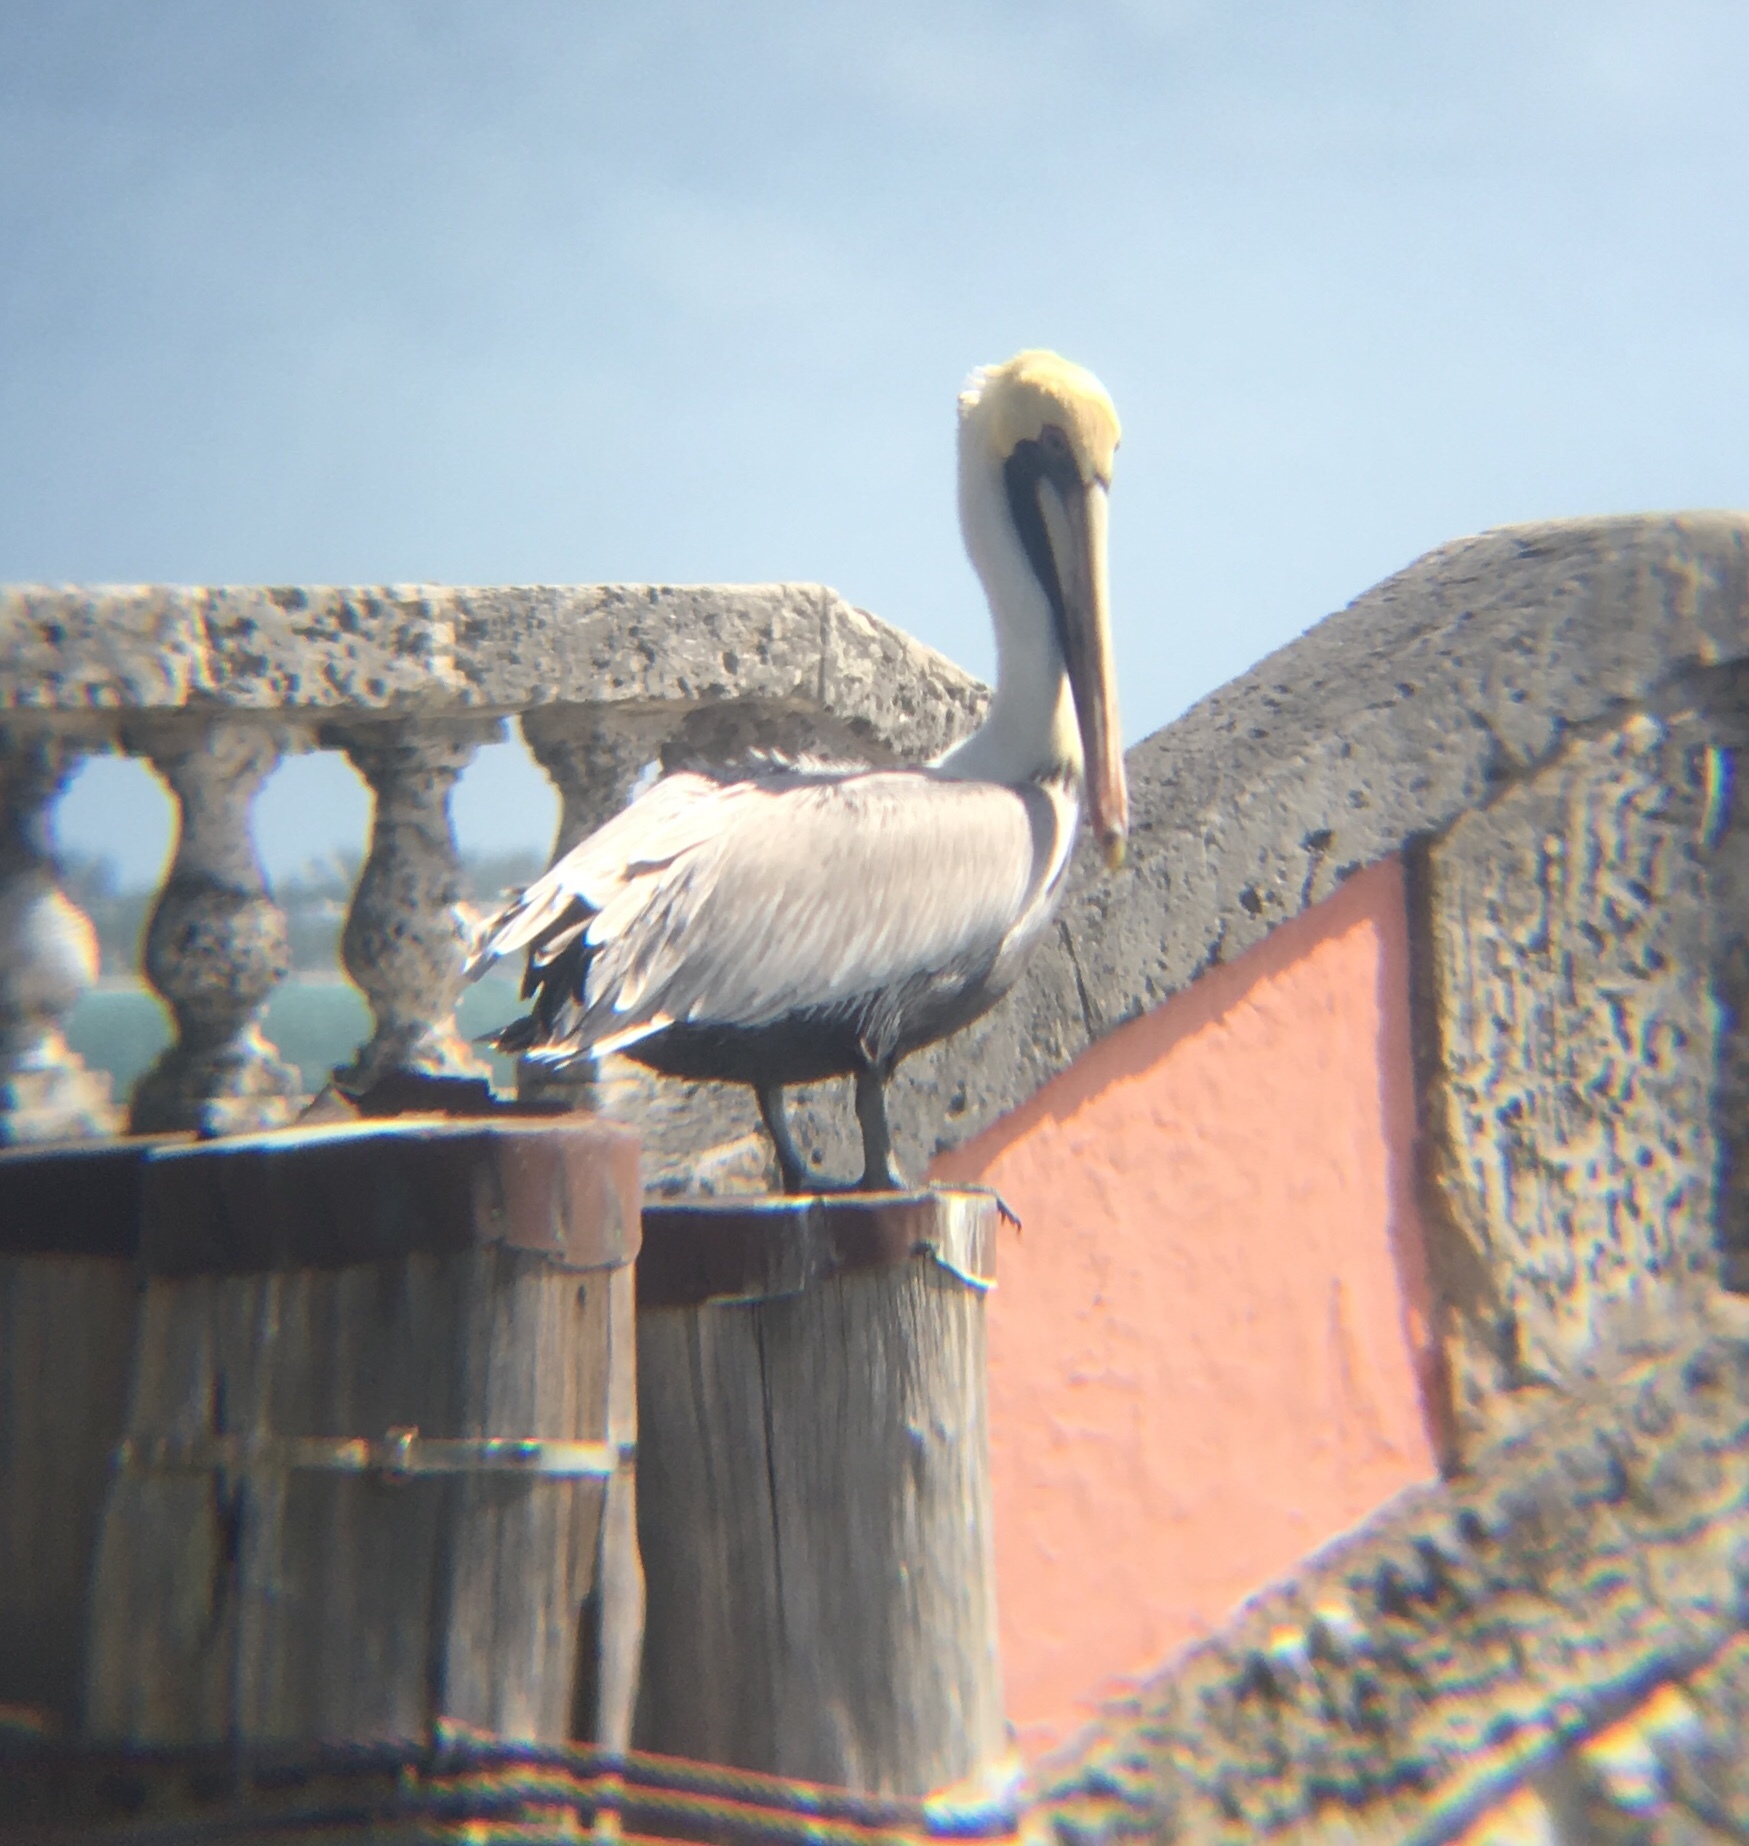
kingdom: Animalia
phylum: Chordata
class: Aves
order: Pelecaniformes
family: Pelecanidae
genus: Pelecanus
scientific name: Pelecanus occidentalis
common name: Brown pelican
